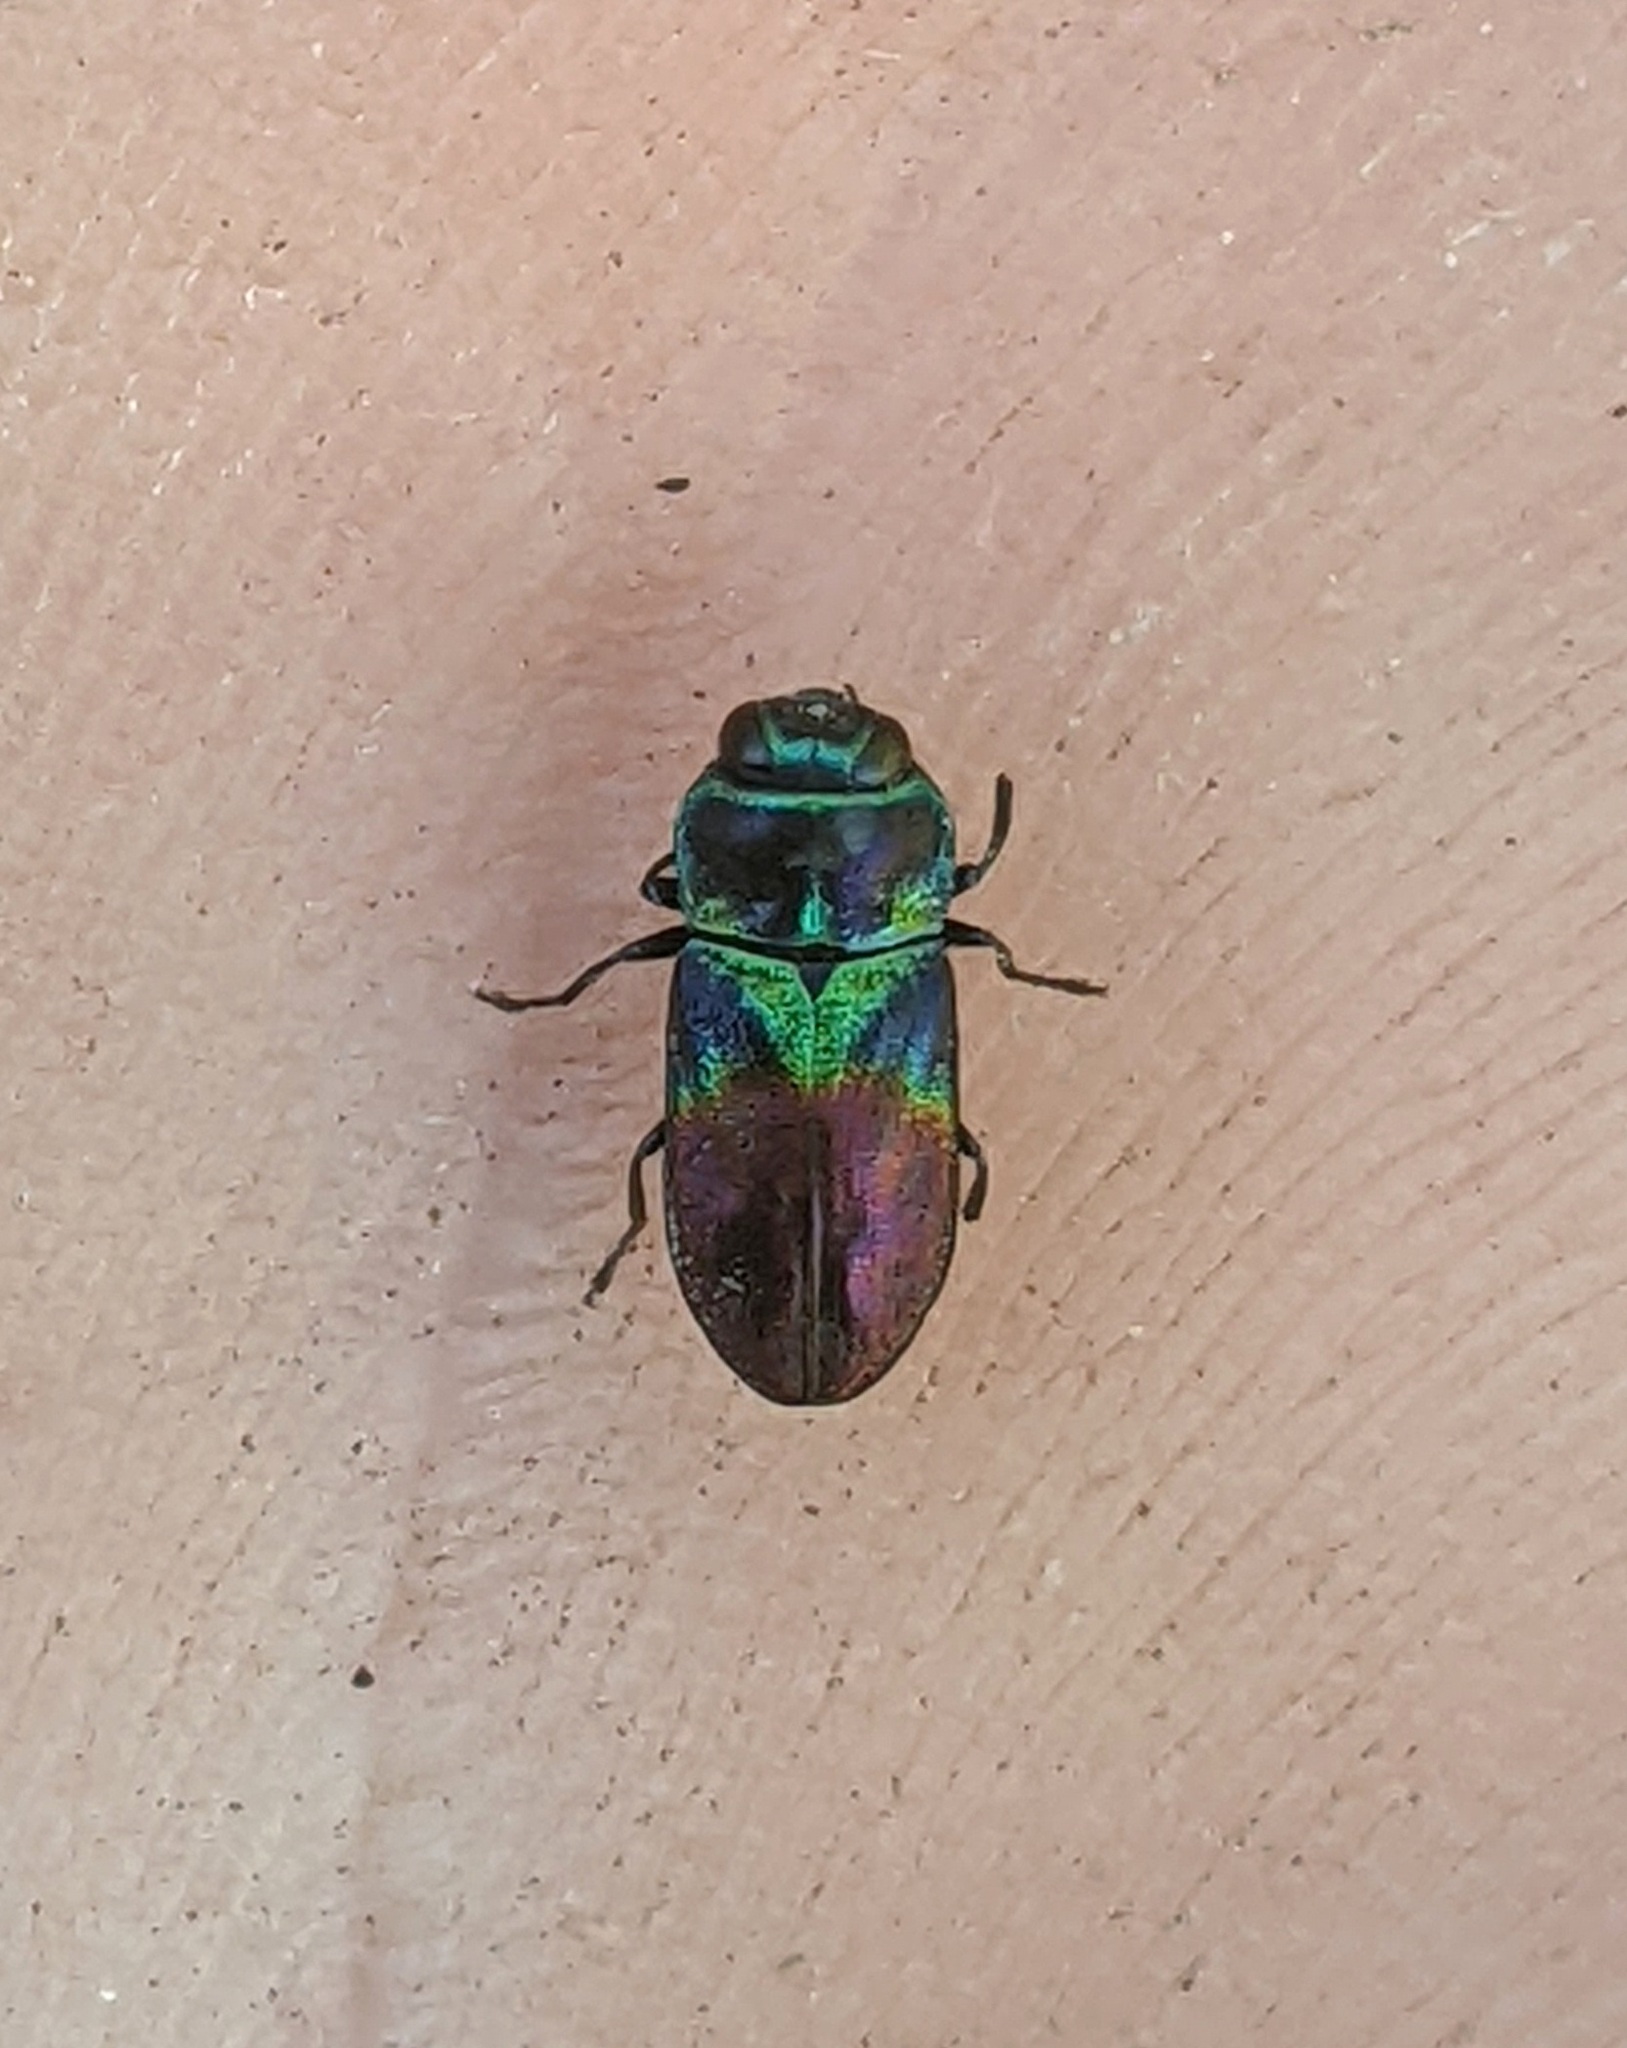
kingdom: Animalia
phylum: Arthropoda
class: Insecta
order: Coleoptera
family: Buprestidae
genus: Anthaxia
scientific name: Anthaxia dimidiata
